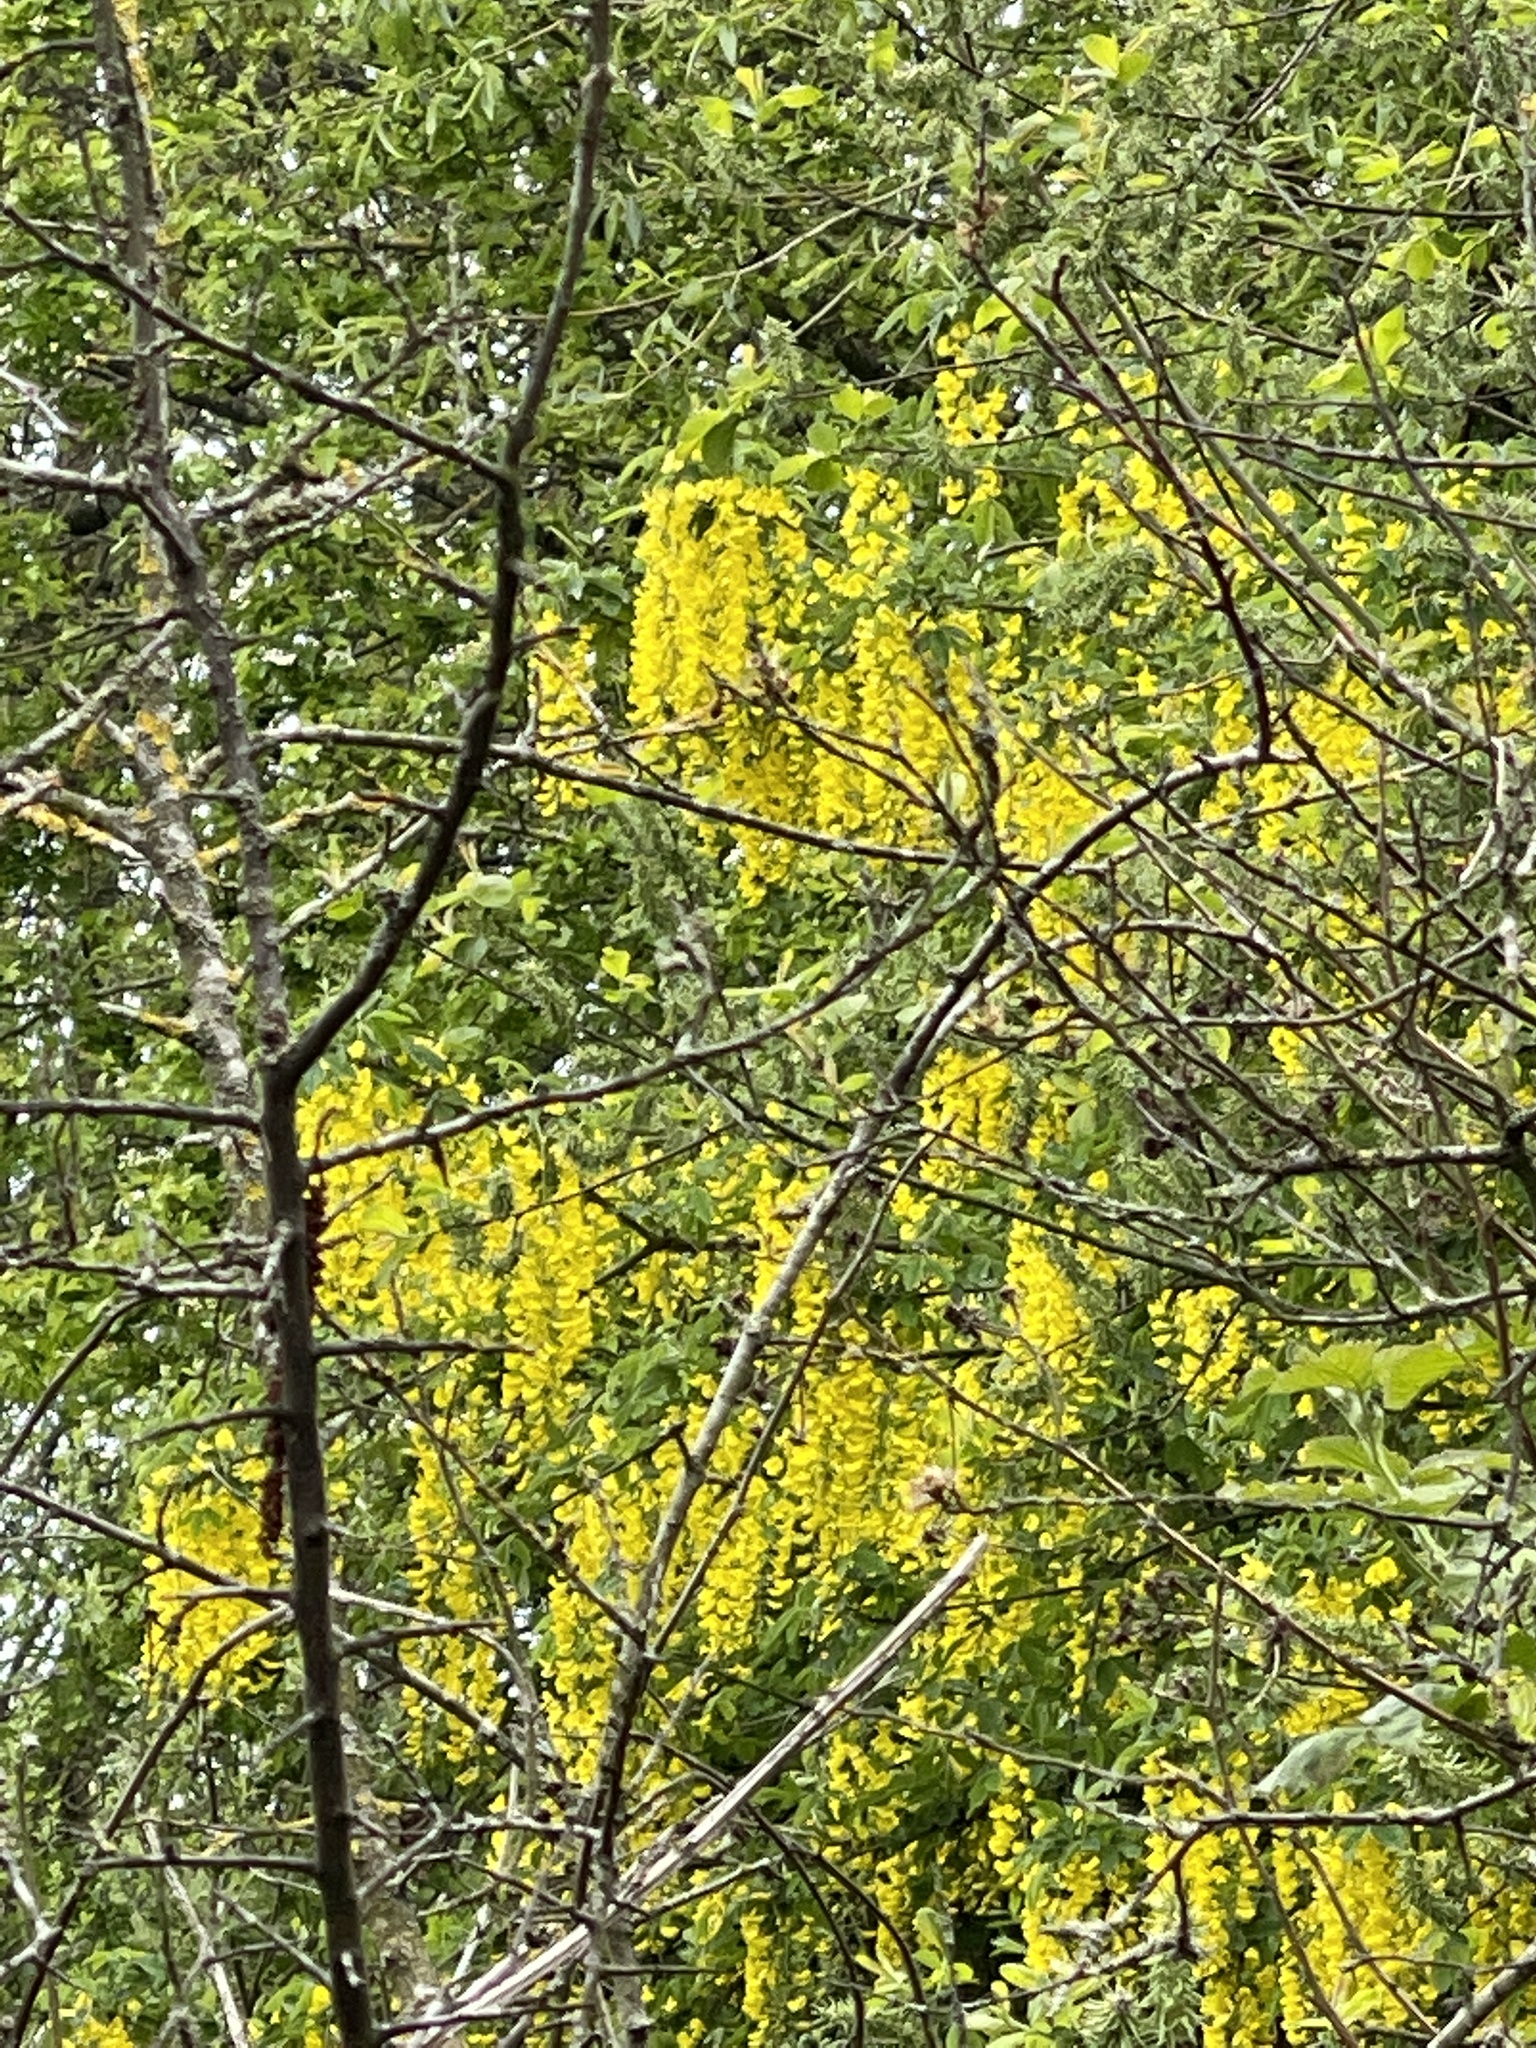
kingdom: Plantae
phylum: Tracheophyta
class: Magnoliopsida
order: Fabales
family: Fabaceae
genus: Laburnum
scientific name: Laburnum anagyroides
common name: Laburnum
